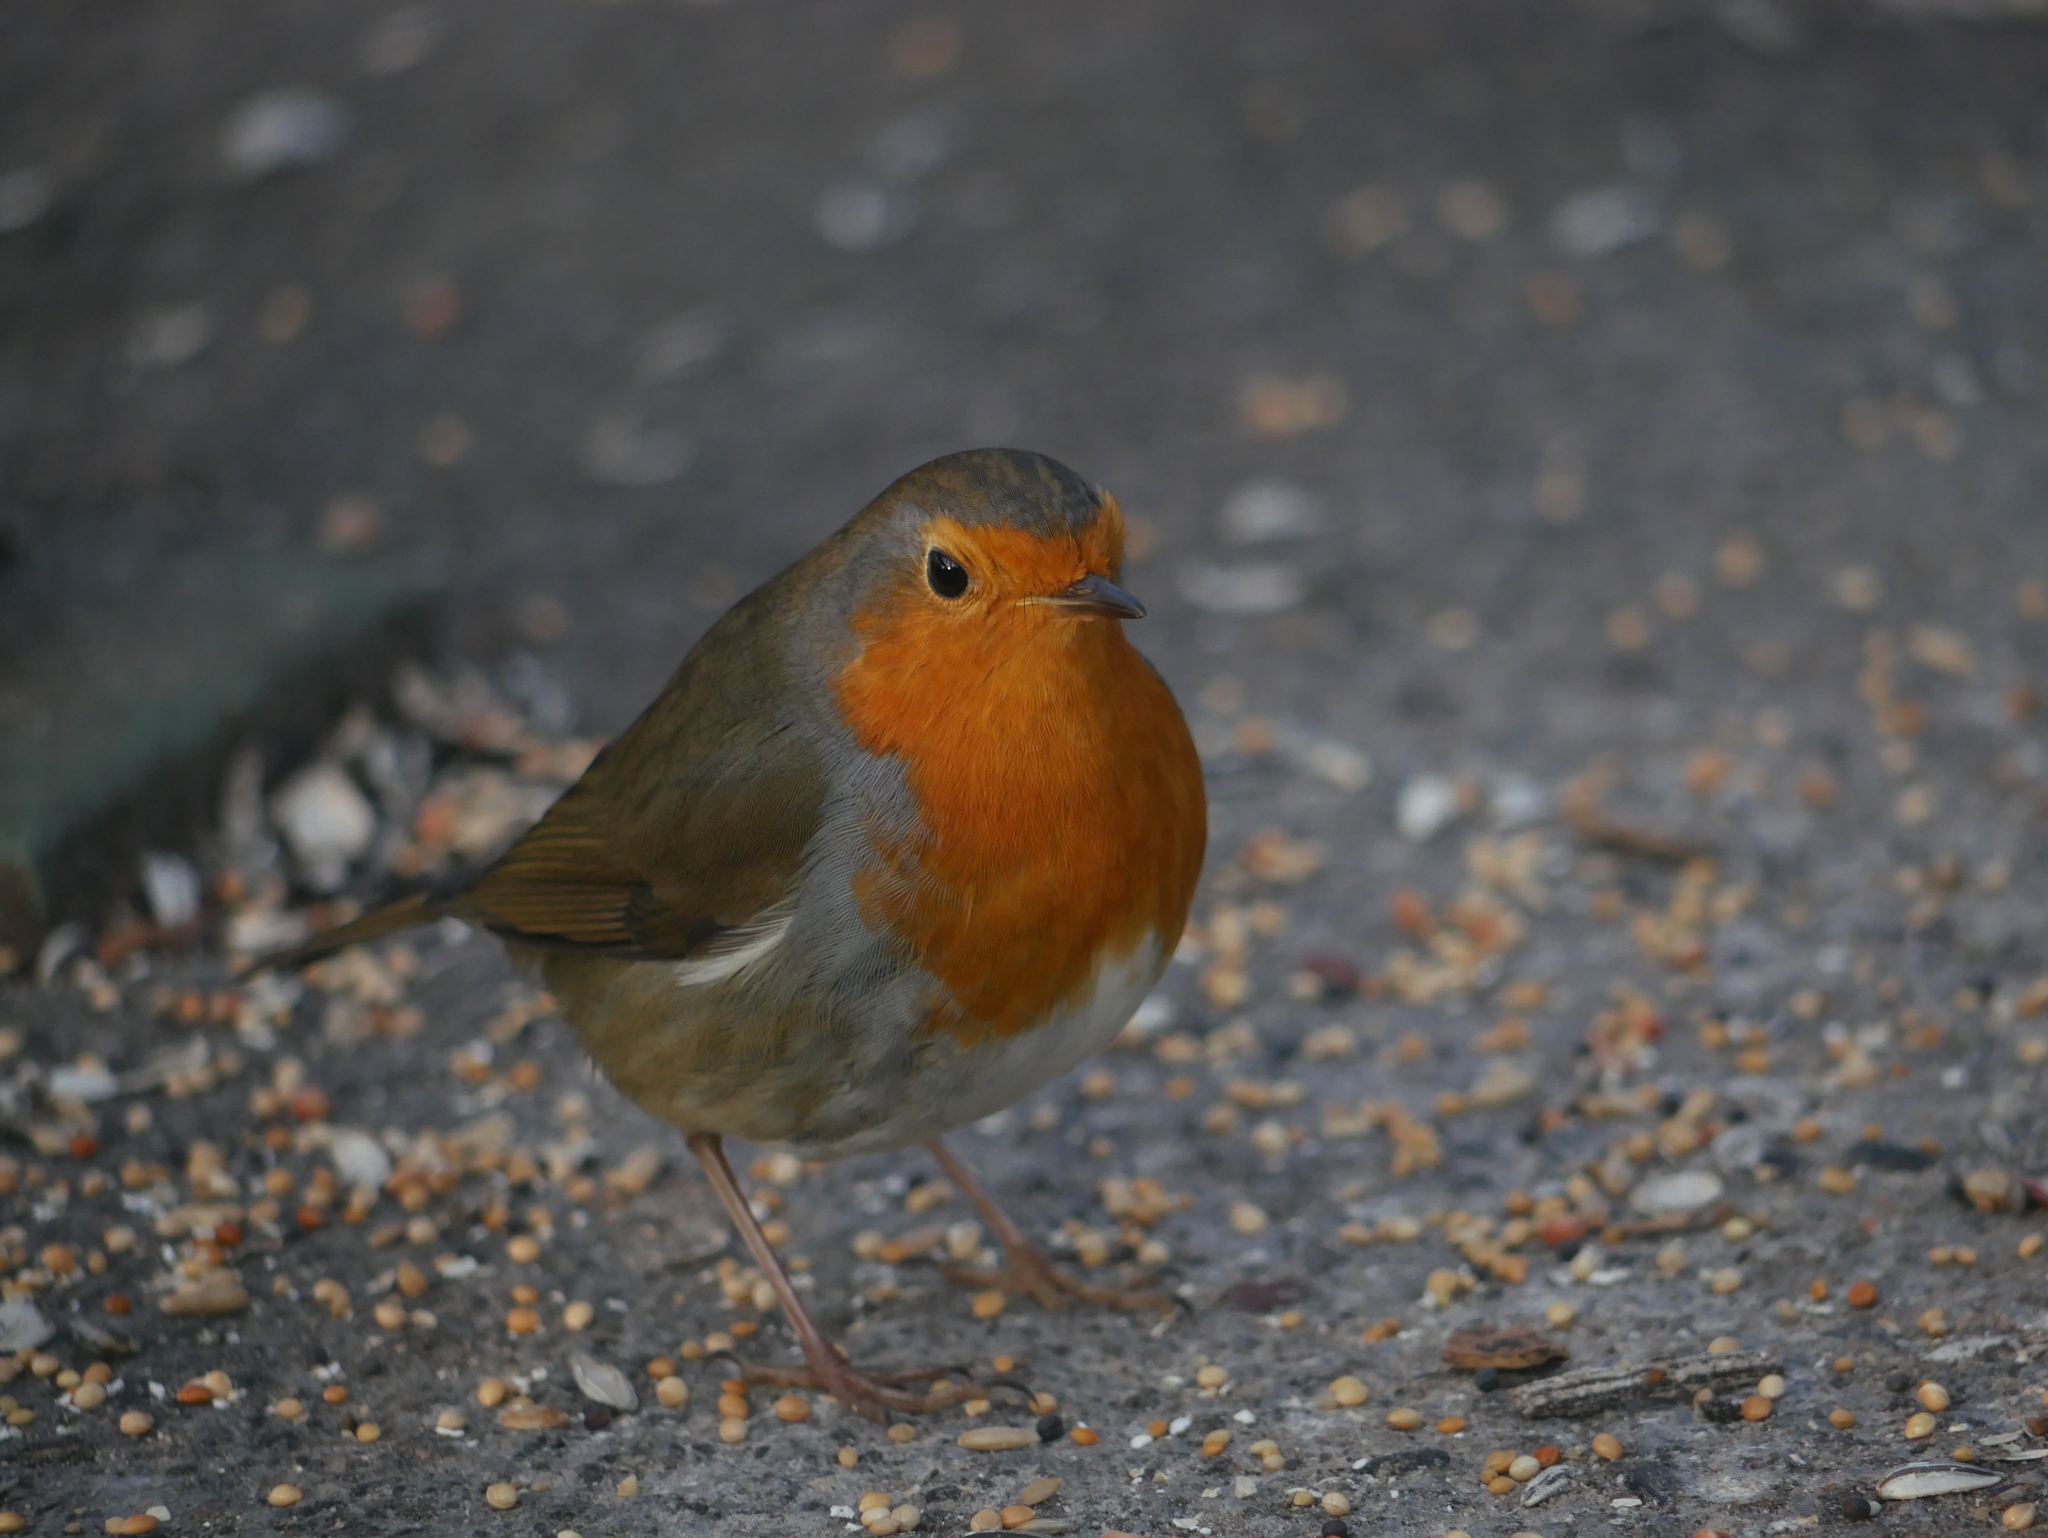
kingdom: Animalia
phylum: Chordata
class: Aves
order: Passeriformes
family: Muscicapidae
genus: Erithacus
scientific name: Erithacus rubecula
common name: European robin
